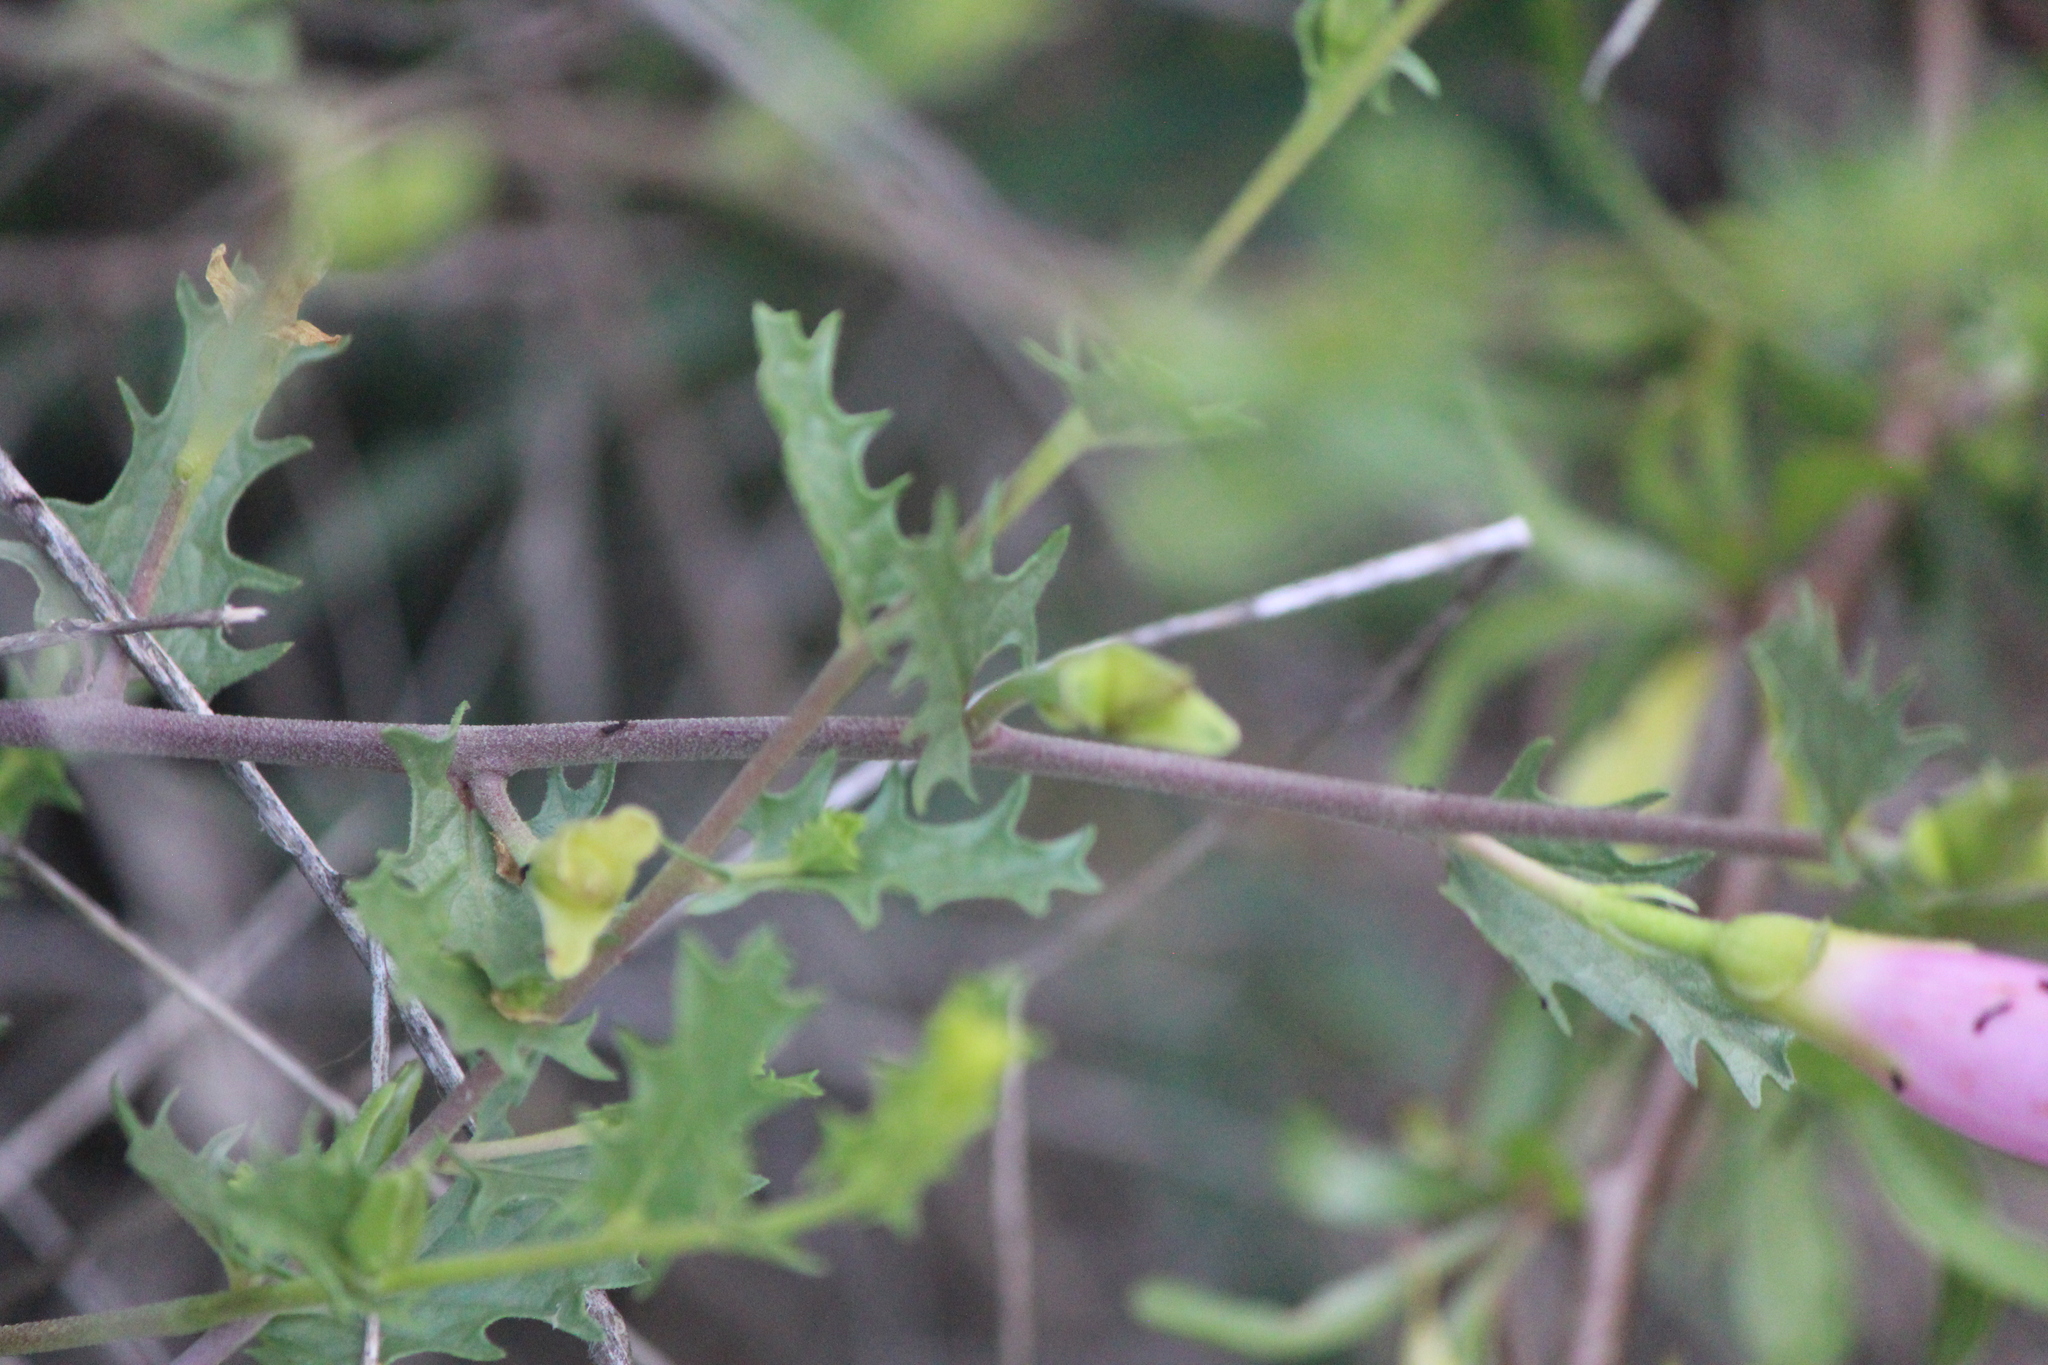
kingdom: Plantae
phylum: Tracheophyta
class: Magnoliopsida
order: Solanales
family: Convolvulaceae
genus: Ipomoea
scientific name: Ipomoea stans
